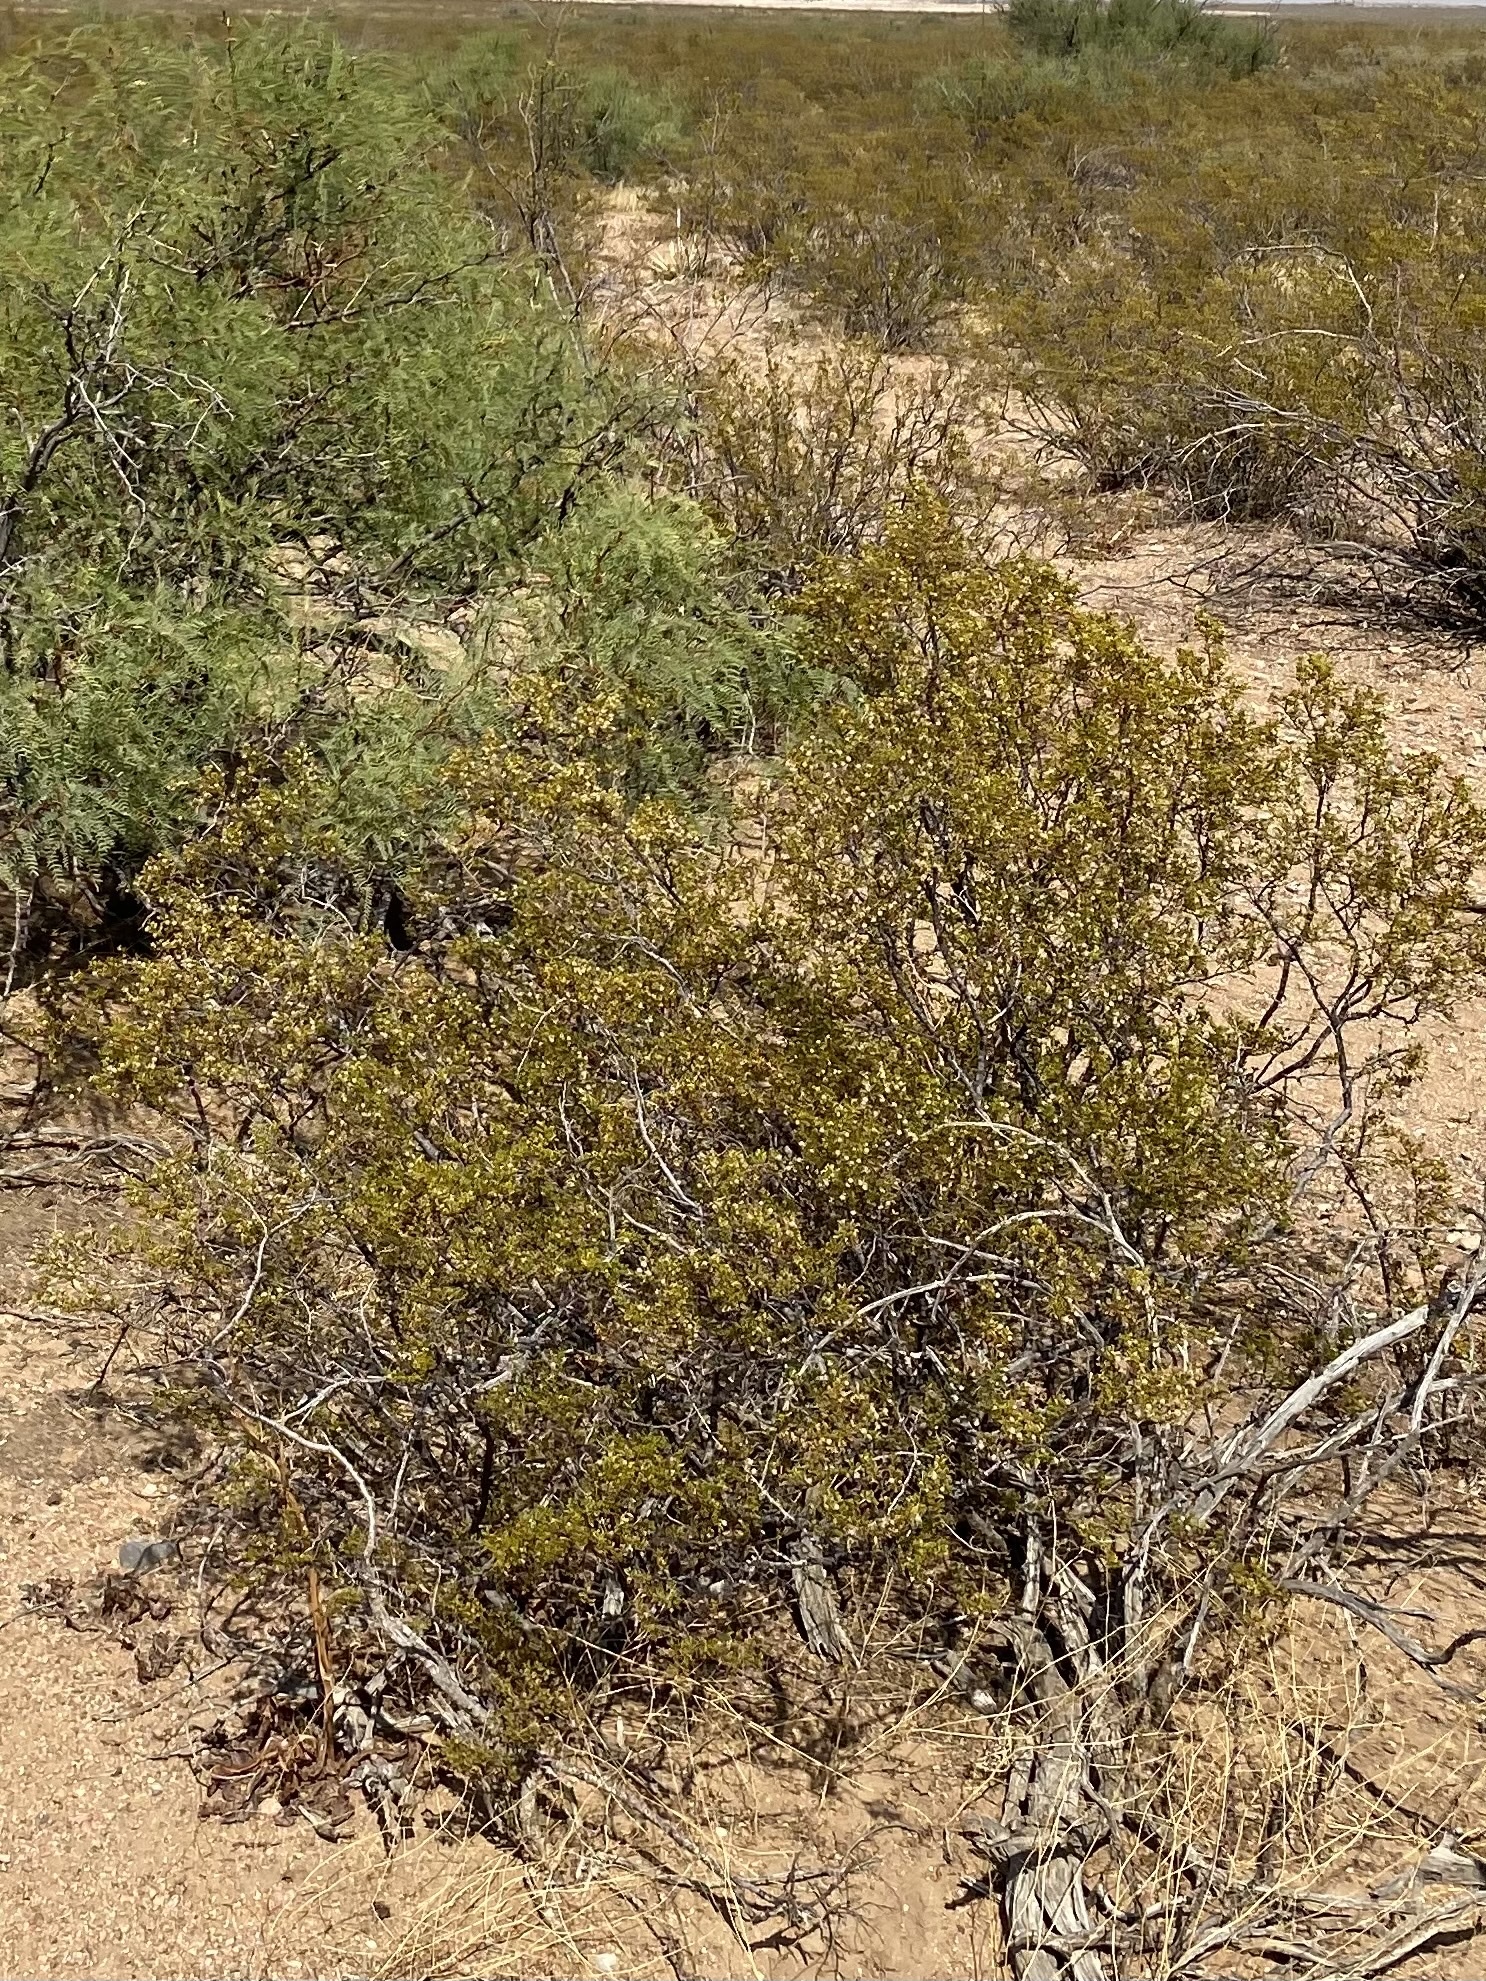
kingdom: Plantae
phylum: Tracheophyta
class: Magnoliopsida
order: Zygophyllales
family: Zygophyllaceae
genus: Larrea
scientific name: Larrea tridentata
